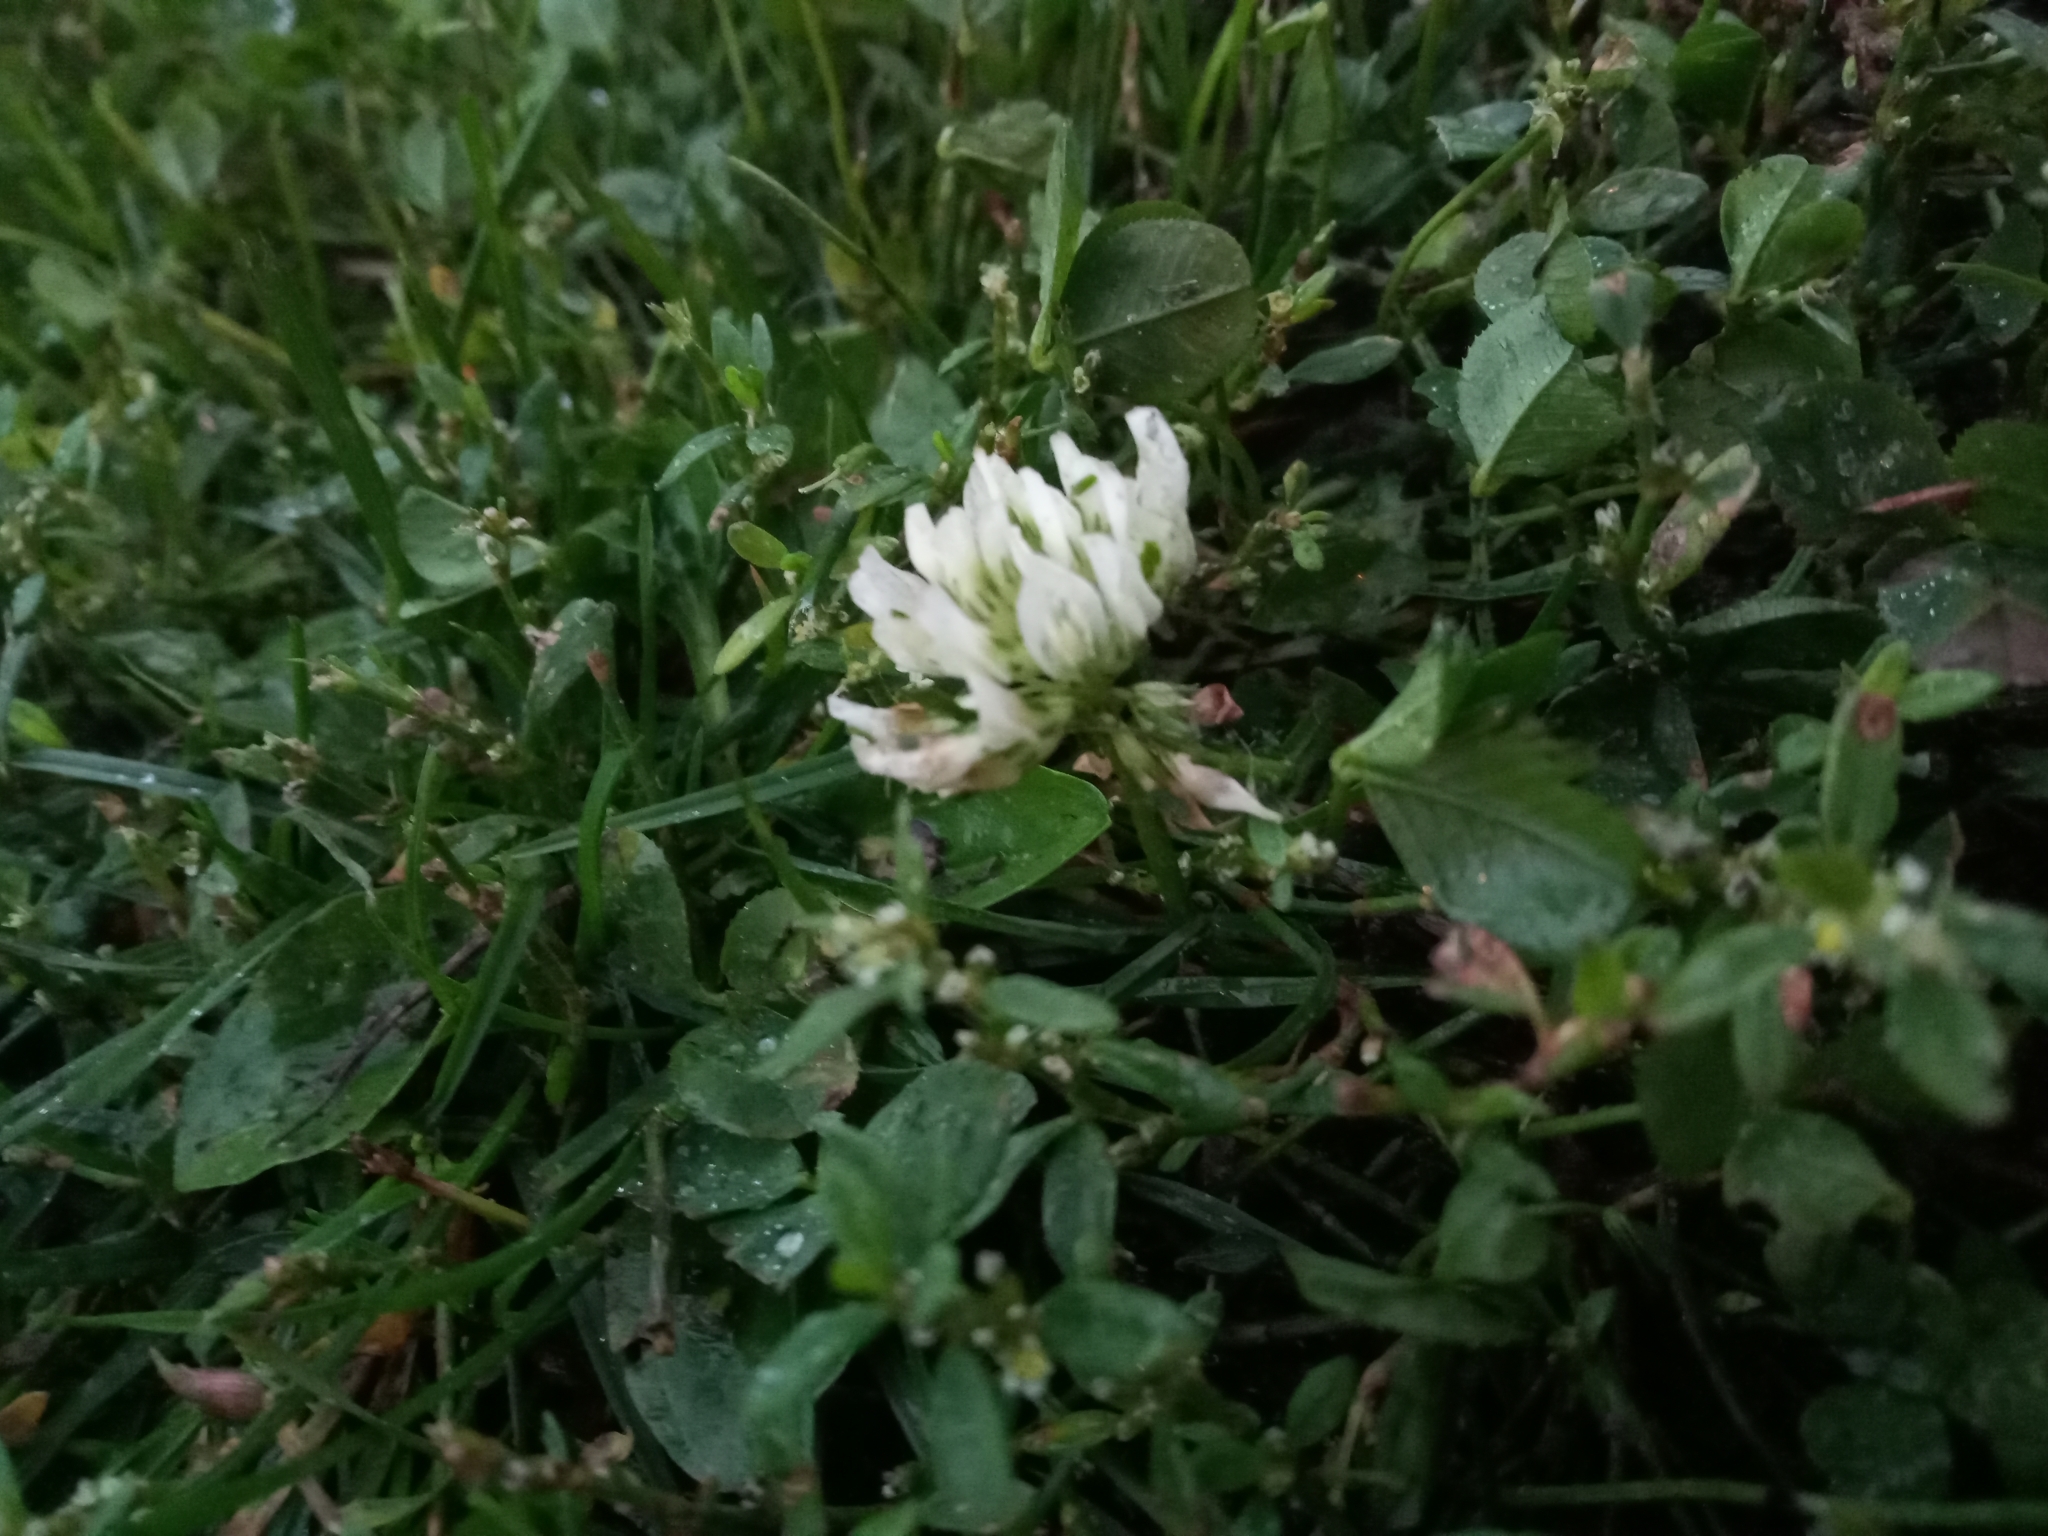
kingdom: Plantae
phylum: Tracheophyta
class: Magnoliopsida
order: Fabales
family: Fabaceae
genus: Trifolium
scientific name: Trifolium repens
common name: White clover
